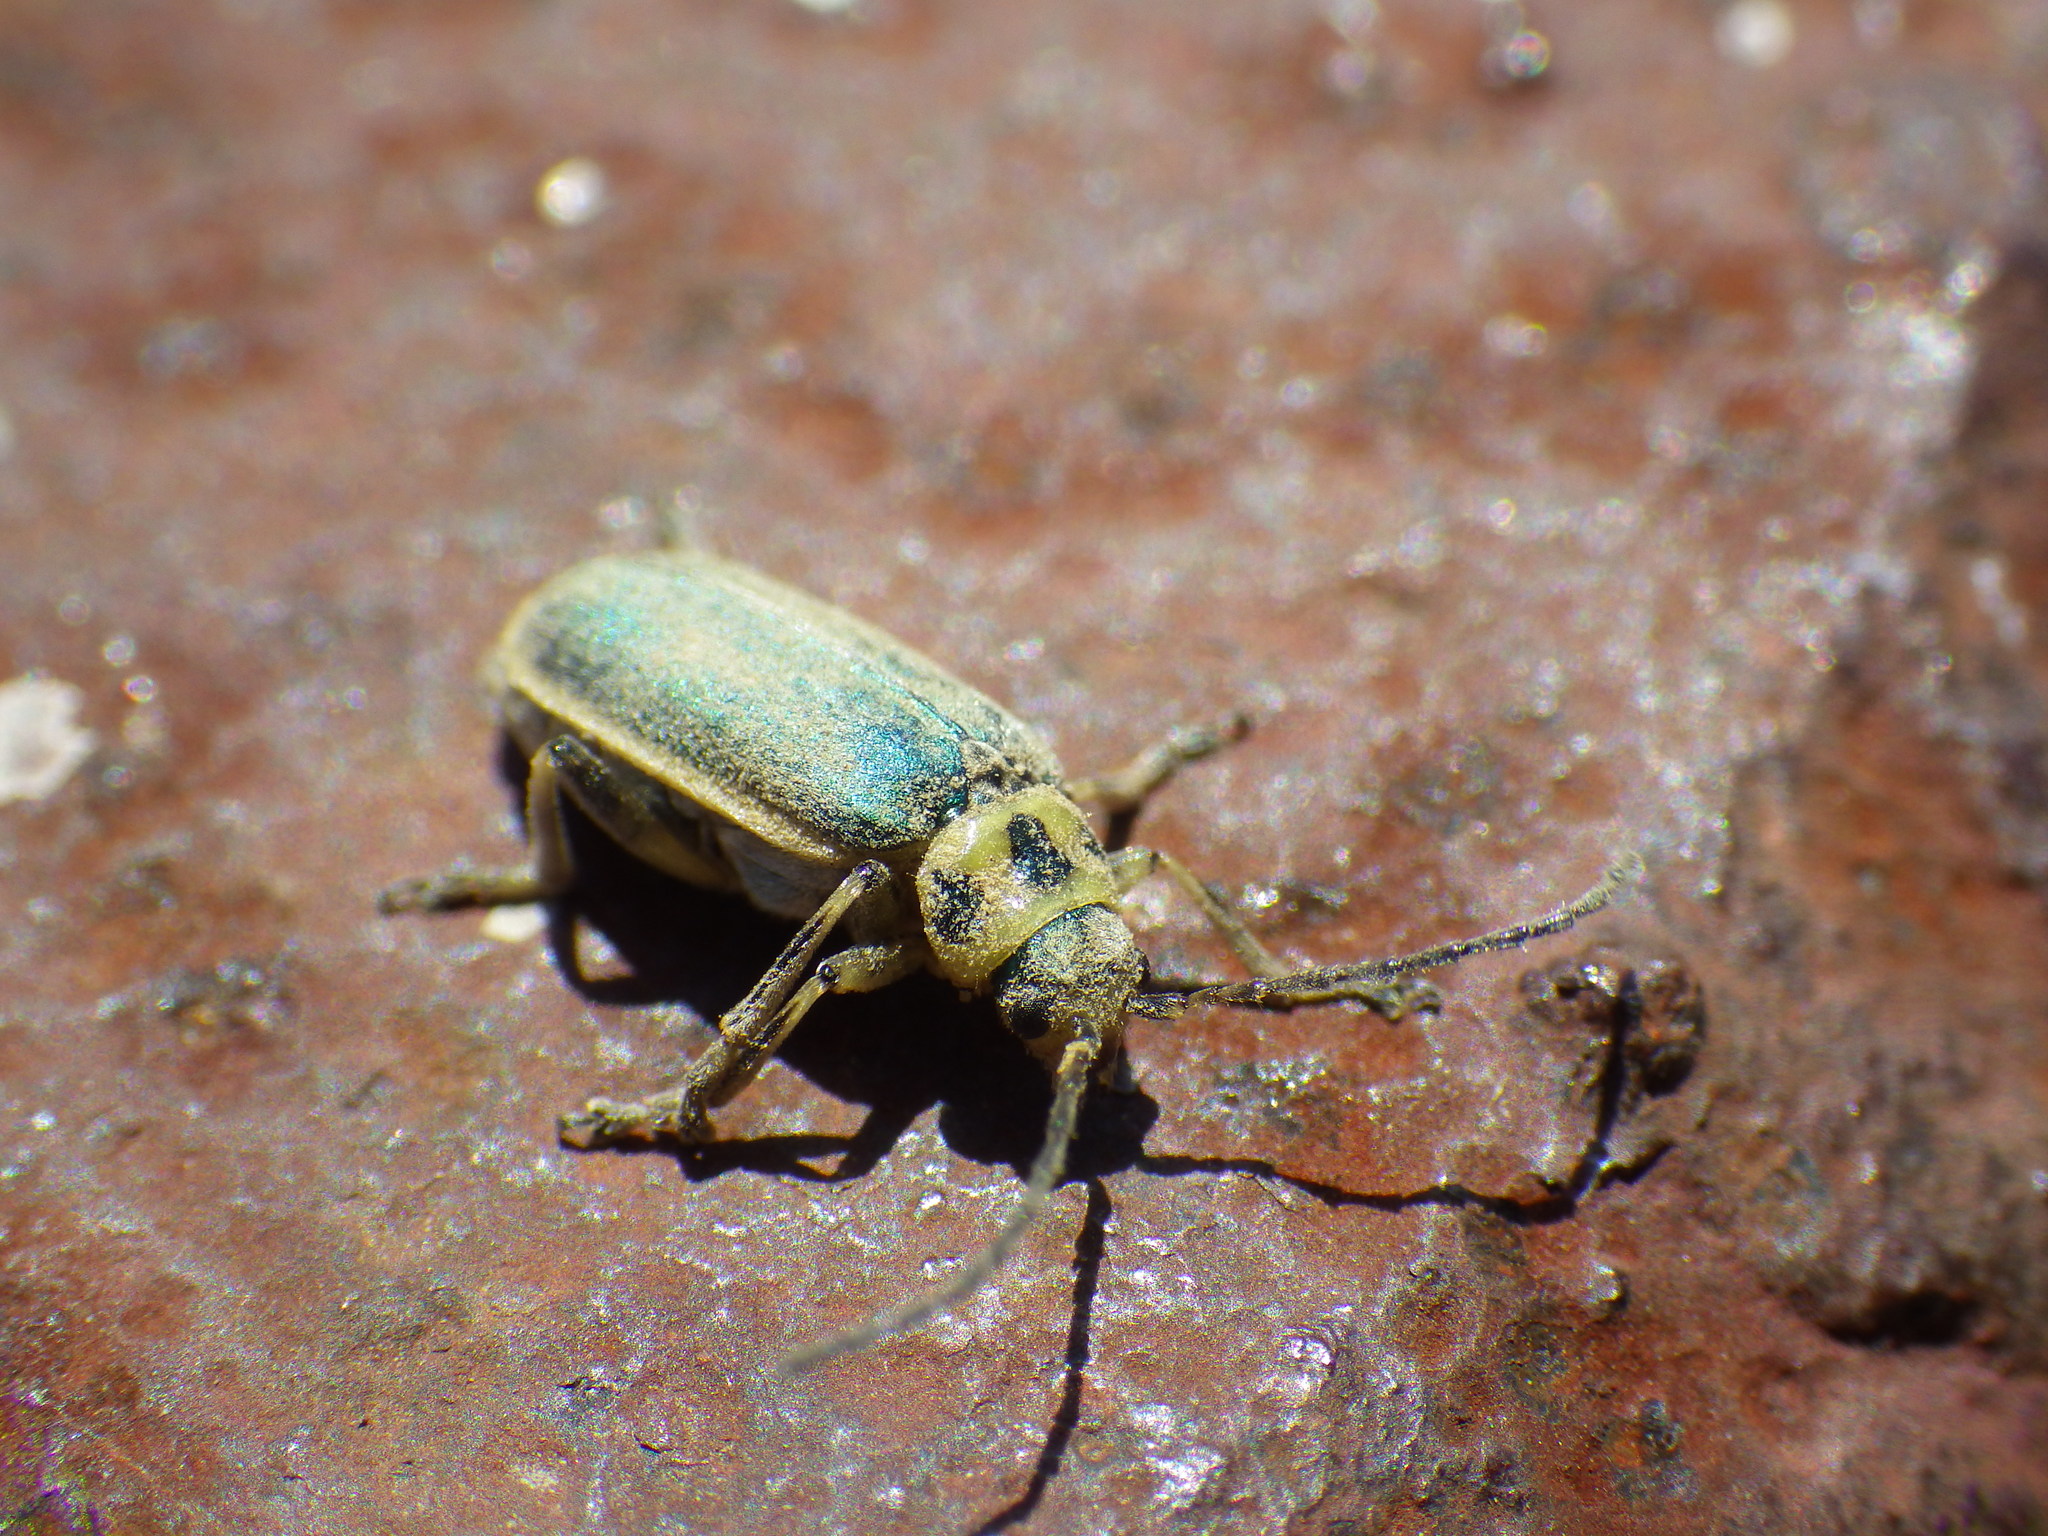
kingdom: Animalia
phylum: Arthropoda
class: Insecta
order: Coleoptera
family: Chrysomelidae
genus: Trirhabda
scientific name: Trirhabda flavolimbata
